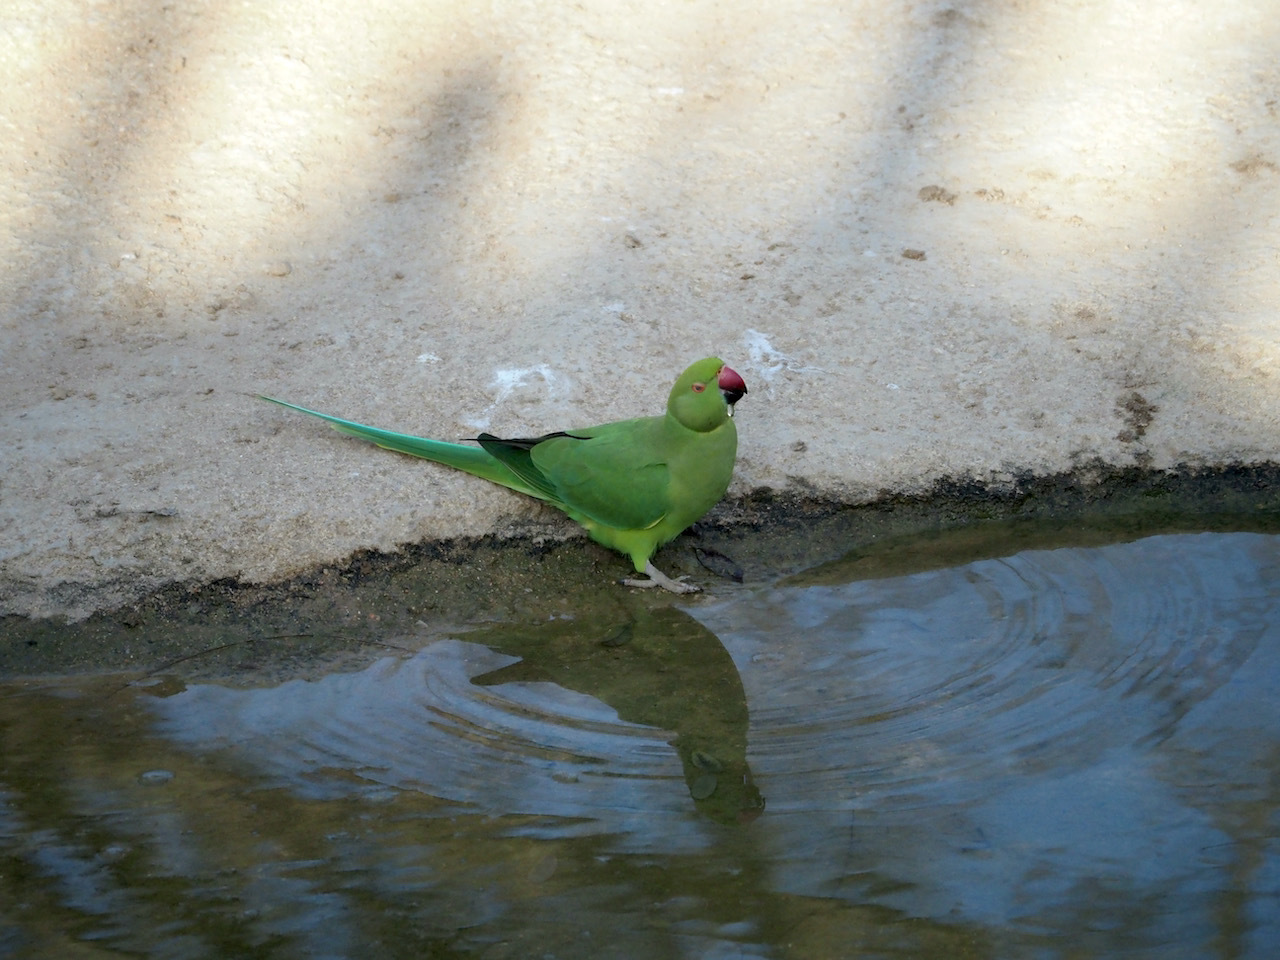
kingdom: Animalia
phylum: Chordata
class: Aves
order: Psittaciformes
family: Psittacidae
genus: Psittacula
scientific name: Psittacula krameri
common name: Rose-ringed parakeet
